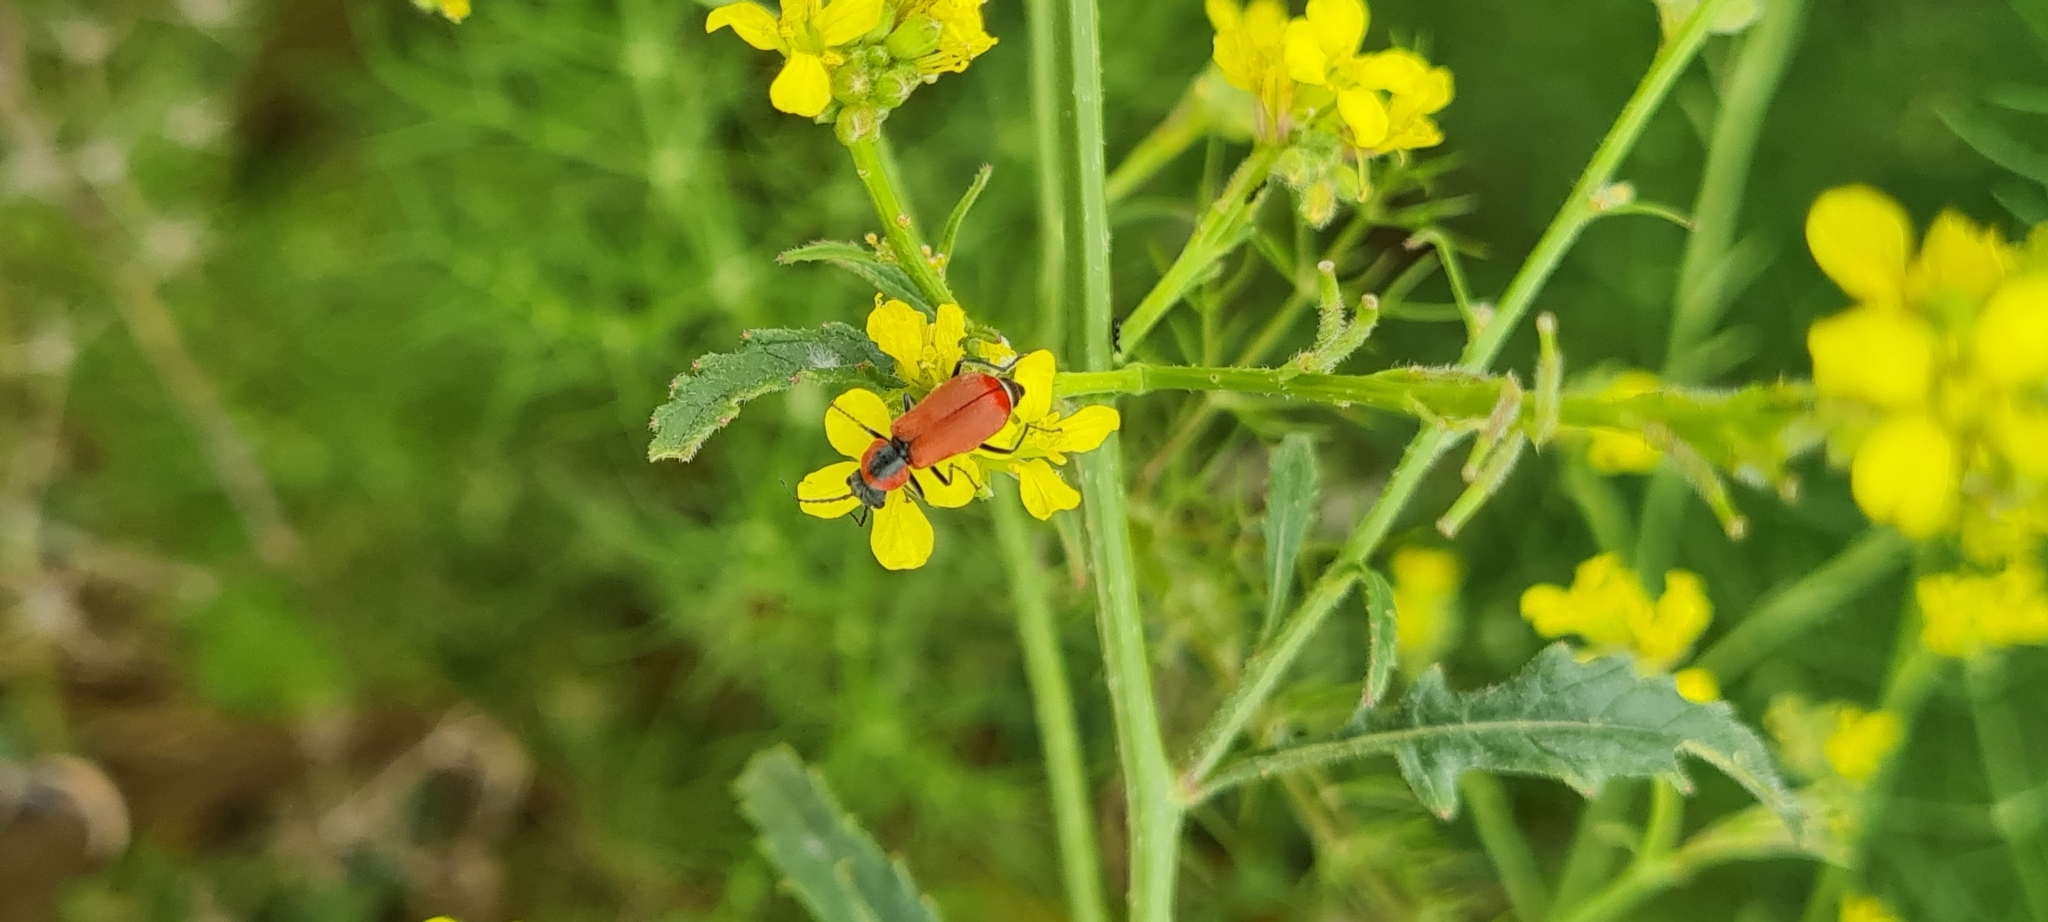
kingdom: Animalia
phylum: Arthropoda
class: Insecta
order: Coleoptera
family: Malachiidae
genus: Clanoptilus
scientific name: Clanoptilus rufus
